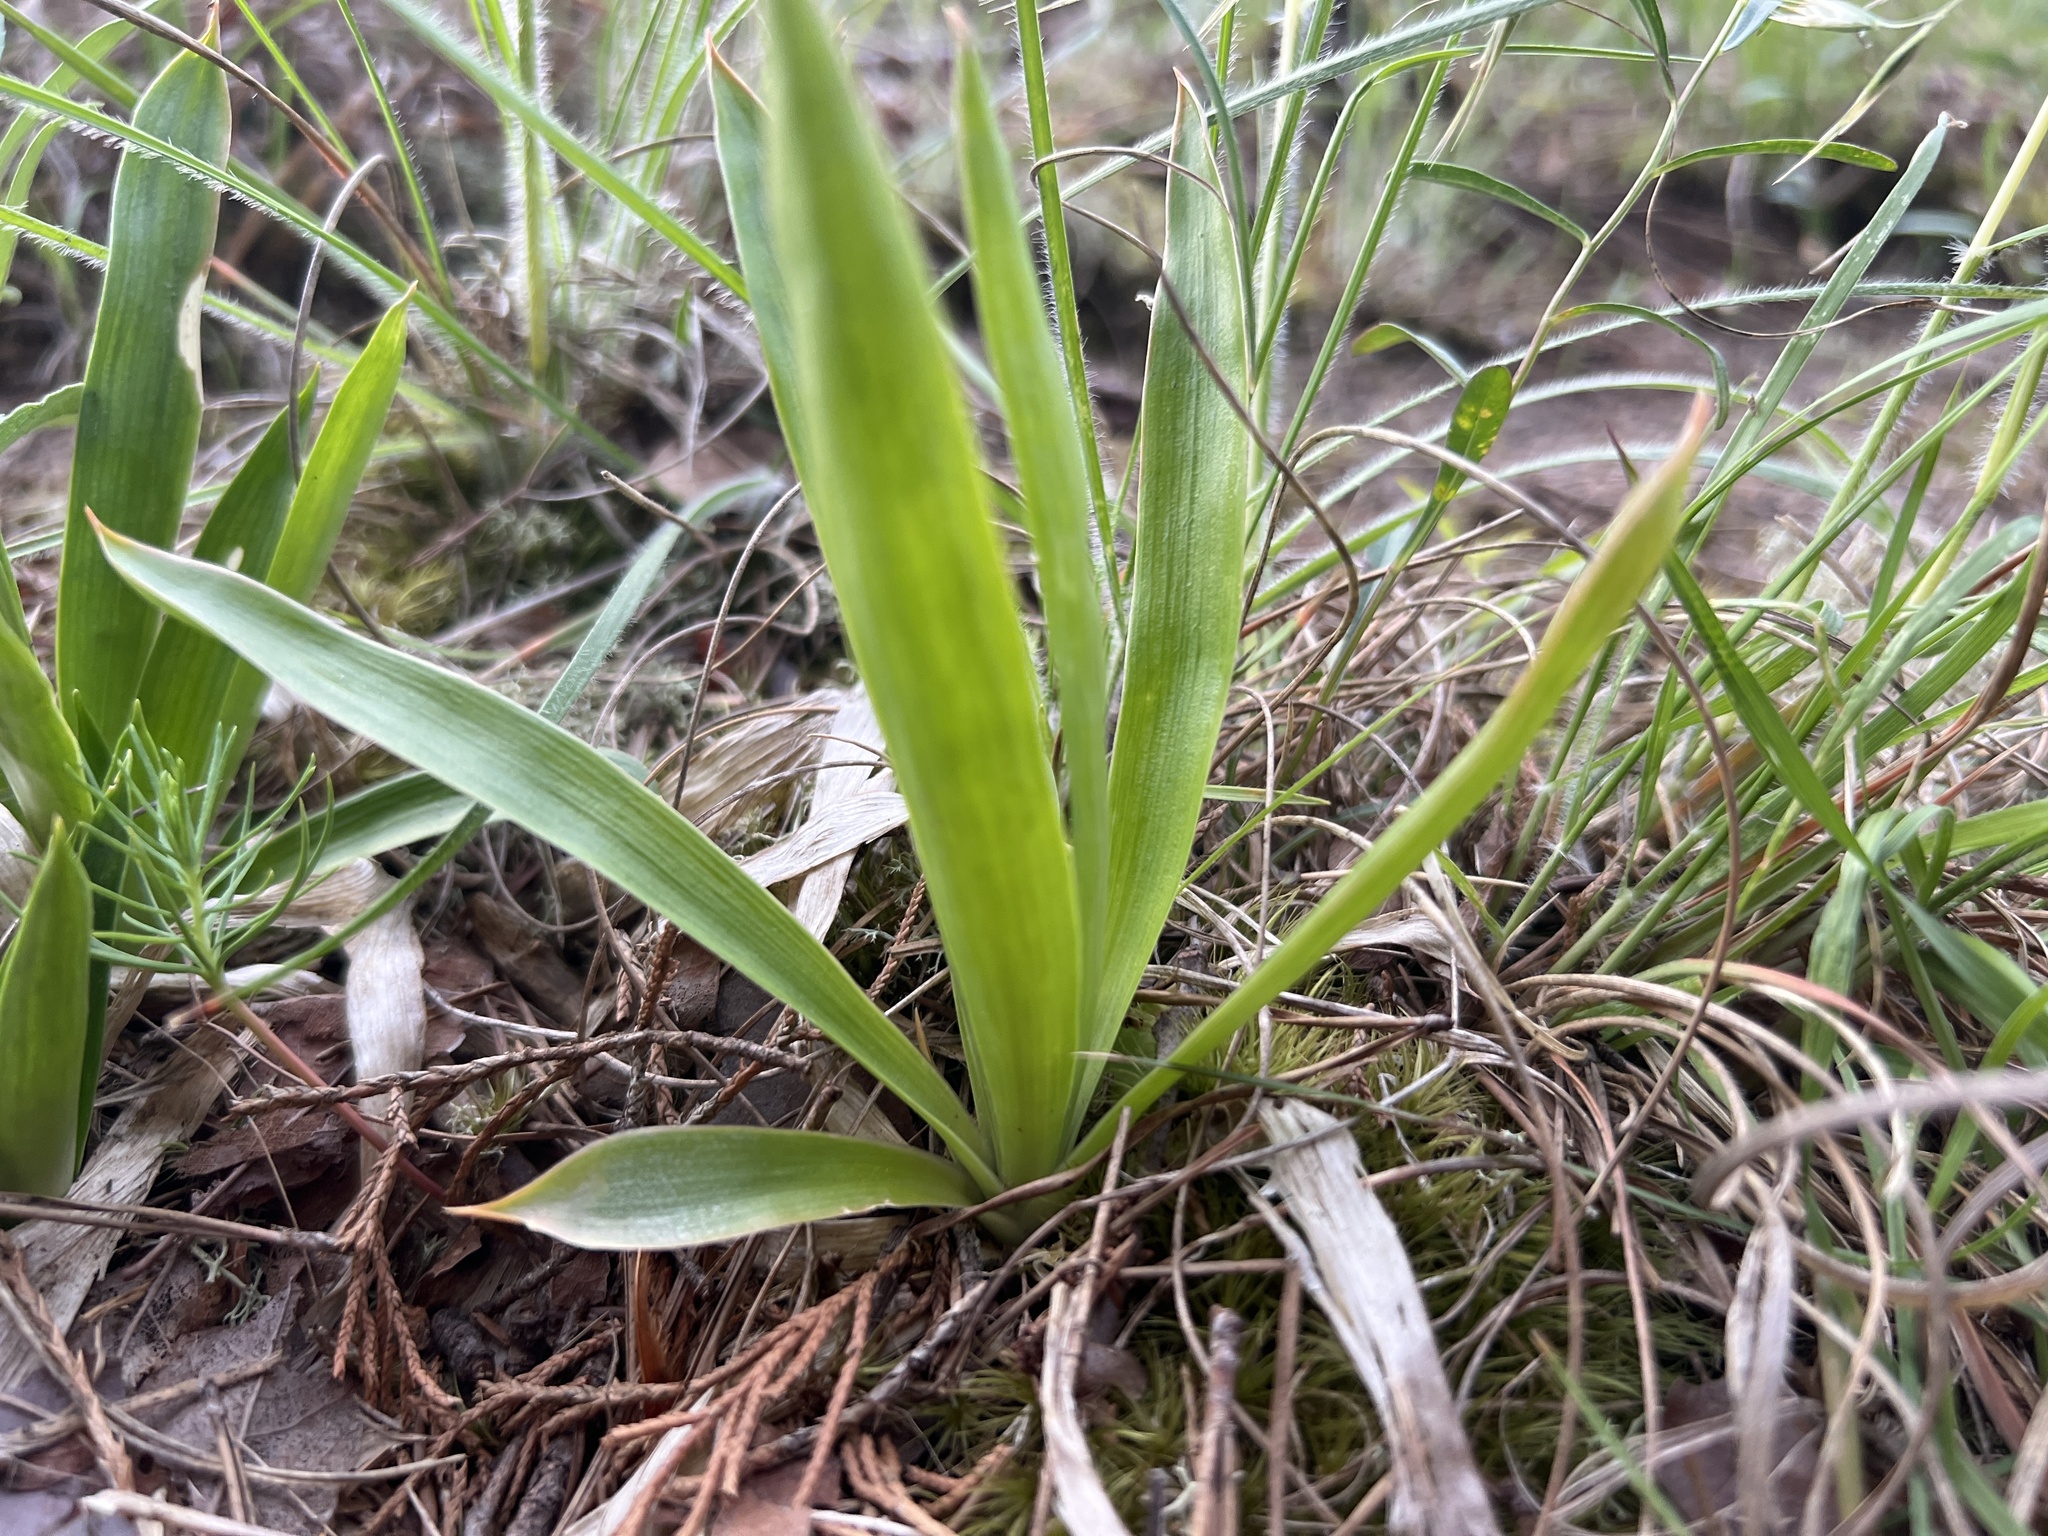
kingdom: Plantae
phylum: Tracheophyta
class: Liliopsida
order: Dioscoreales
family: Nartheciaceae
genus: Aletris
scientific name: Aletris farinosa
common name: Colicroot
